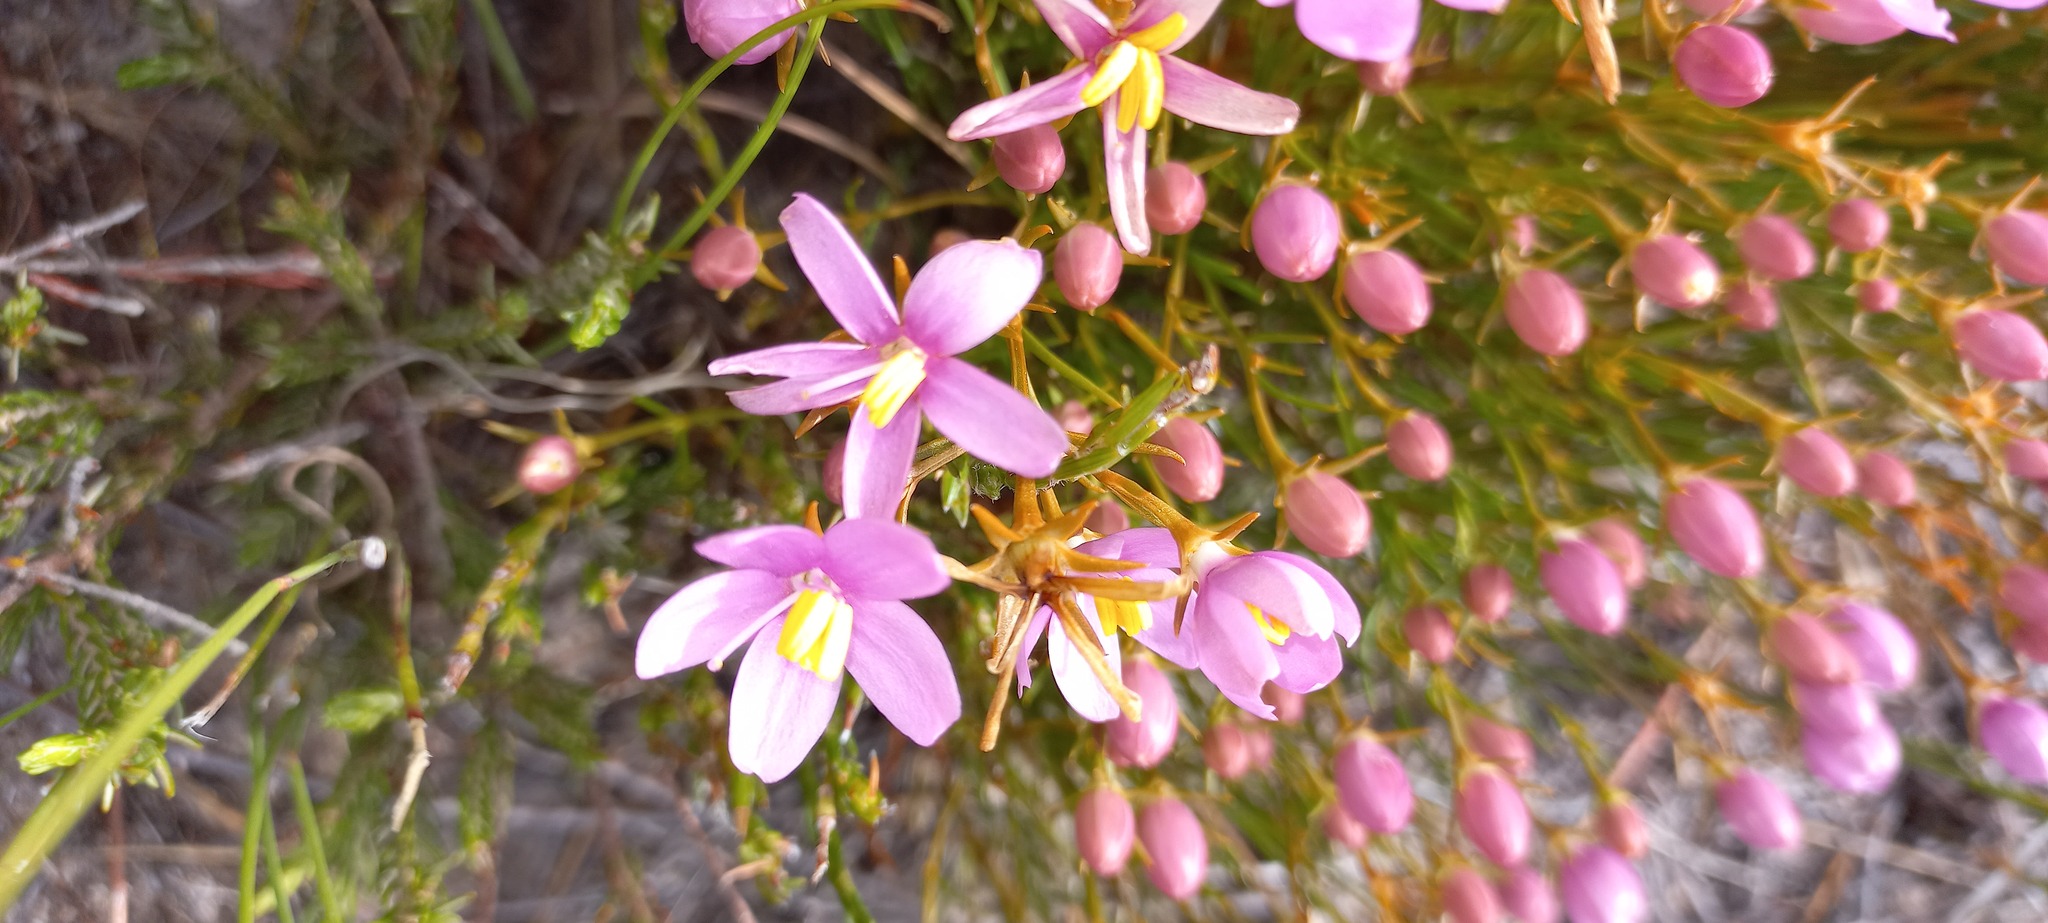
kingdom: Plantae
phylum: Tracheophyta
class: Magnoliopsida
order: Gentianales
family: Gentianaceae
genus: Chironia
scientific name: Chironia baccifera
